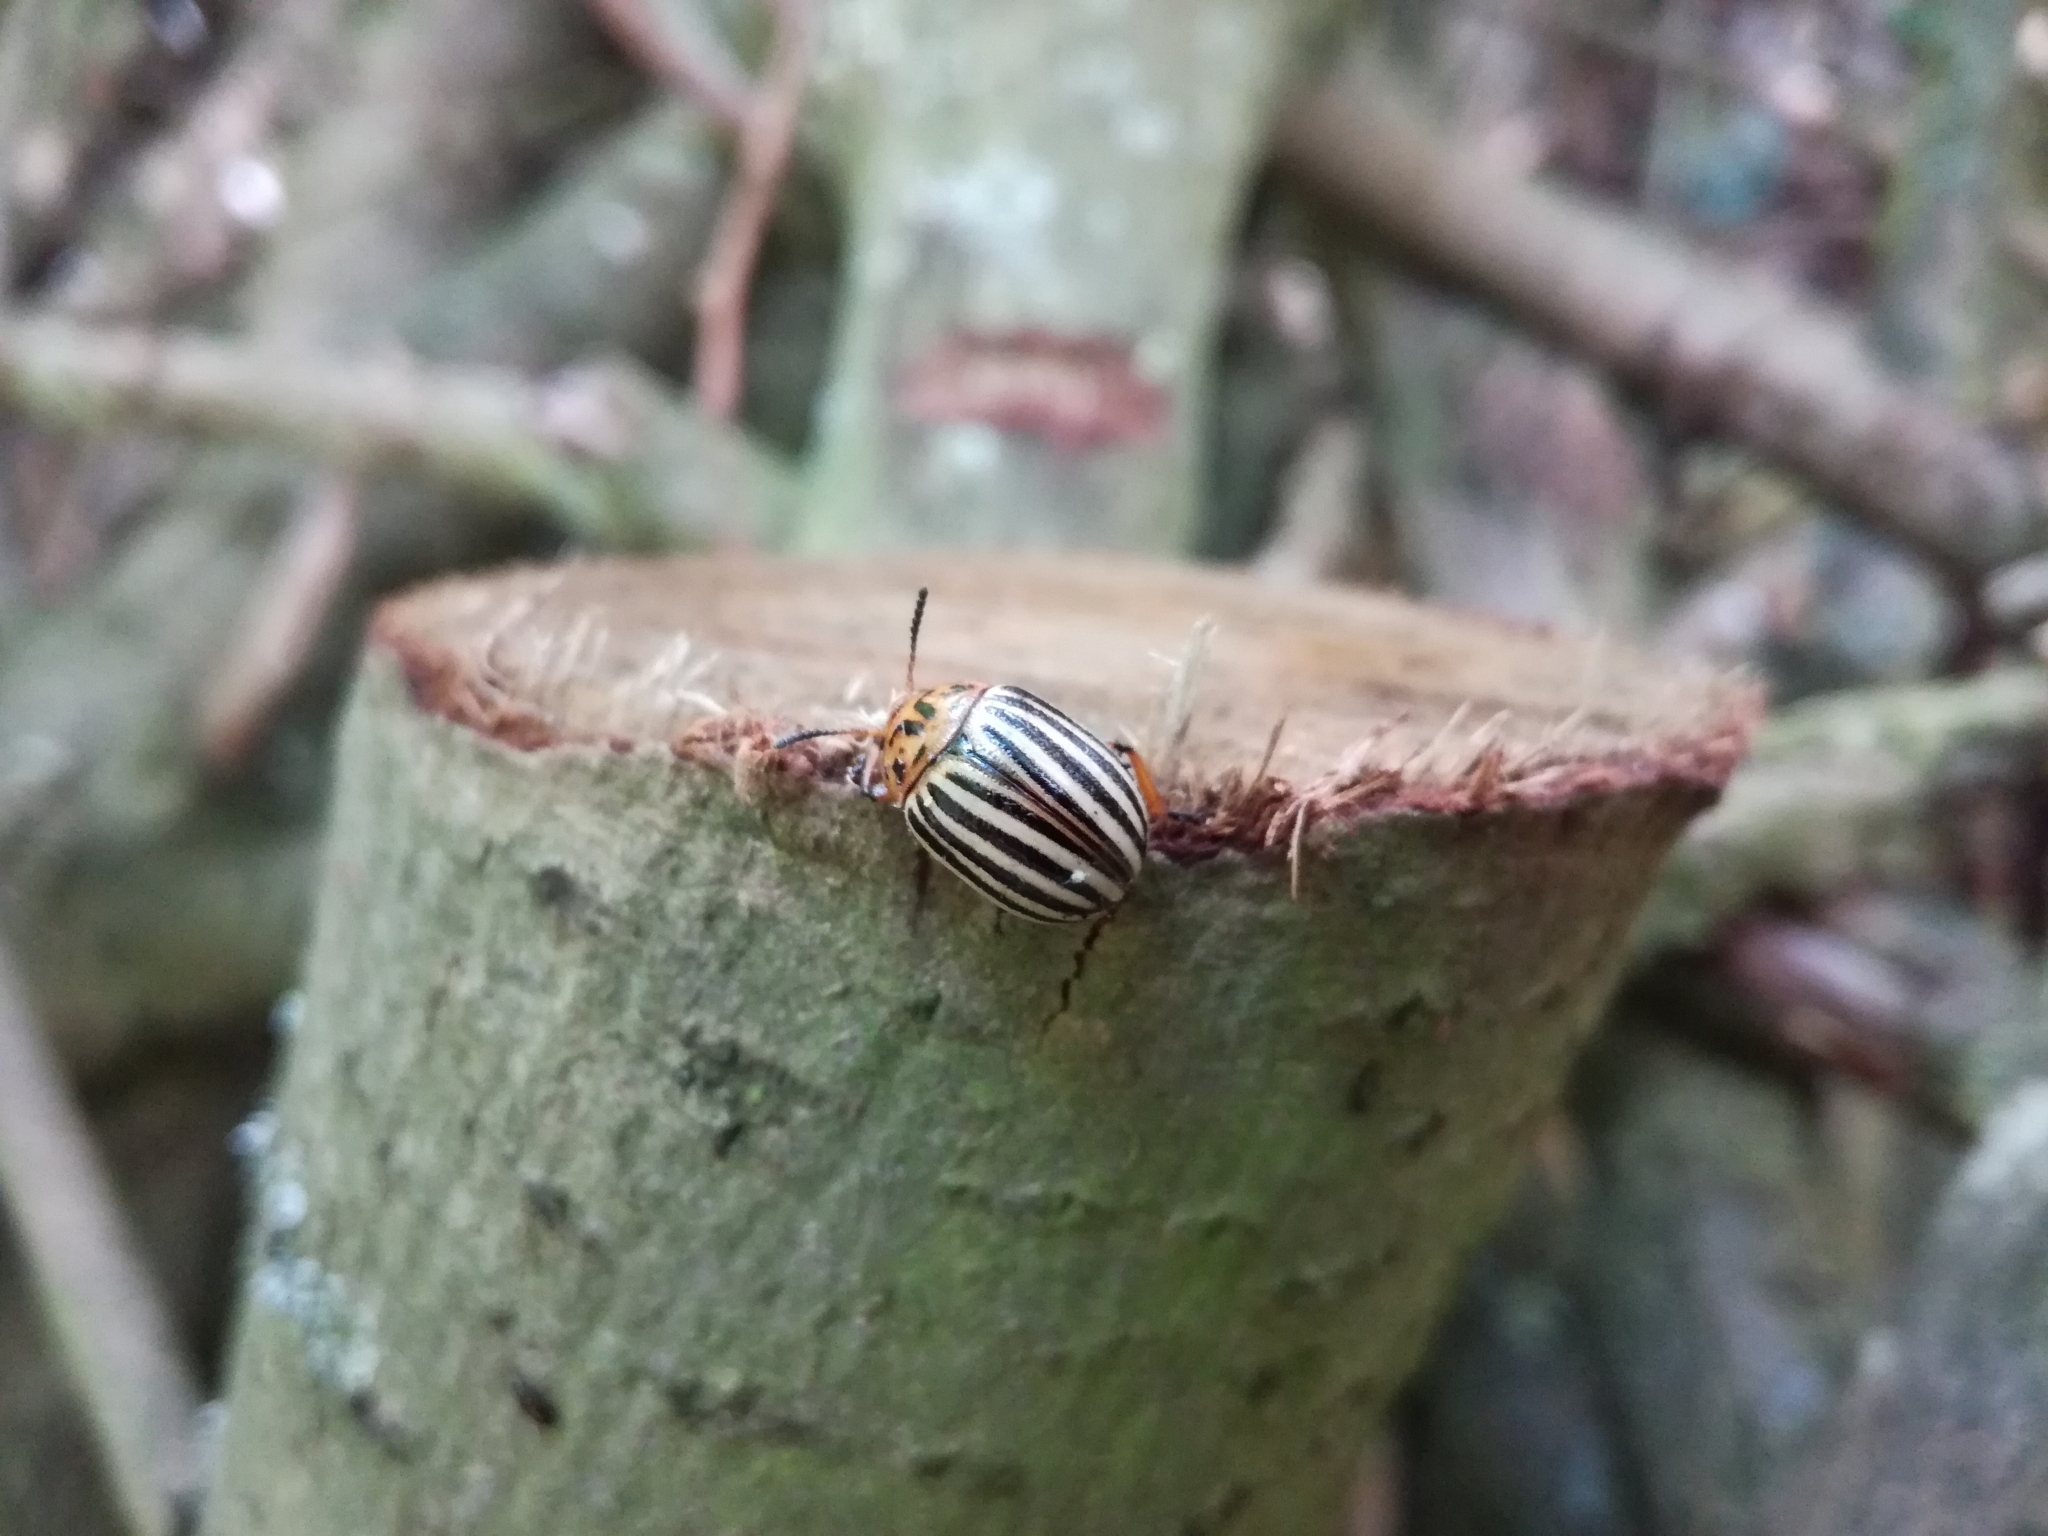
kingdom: Animalia
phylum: Arthropoda
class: Insecta
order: Coleoptera
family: Chrysomelidae
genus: Leptinotarsa
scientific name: Leptinotarsa decemlineata
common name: Colorado potato beetle
